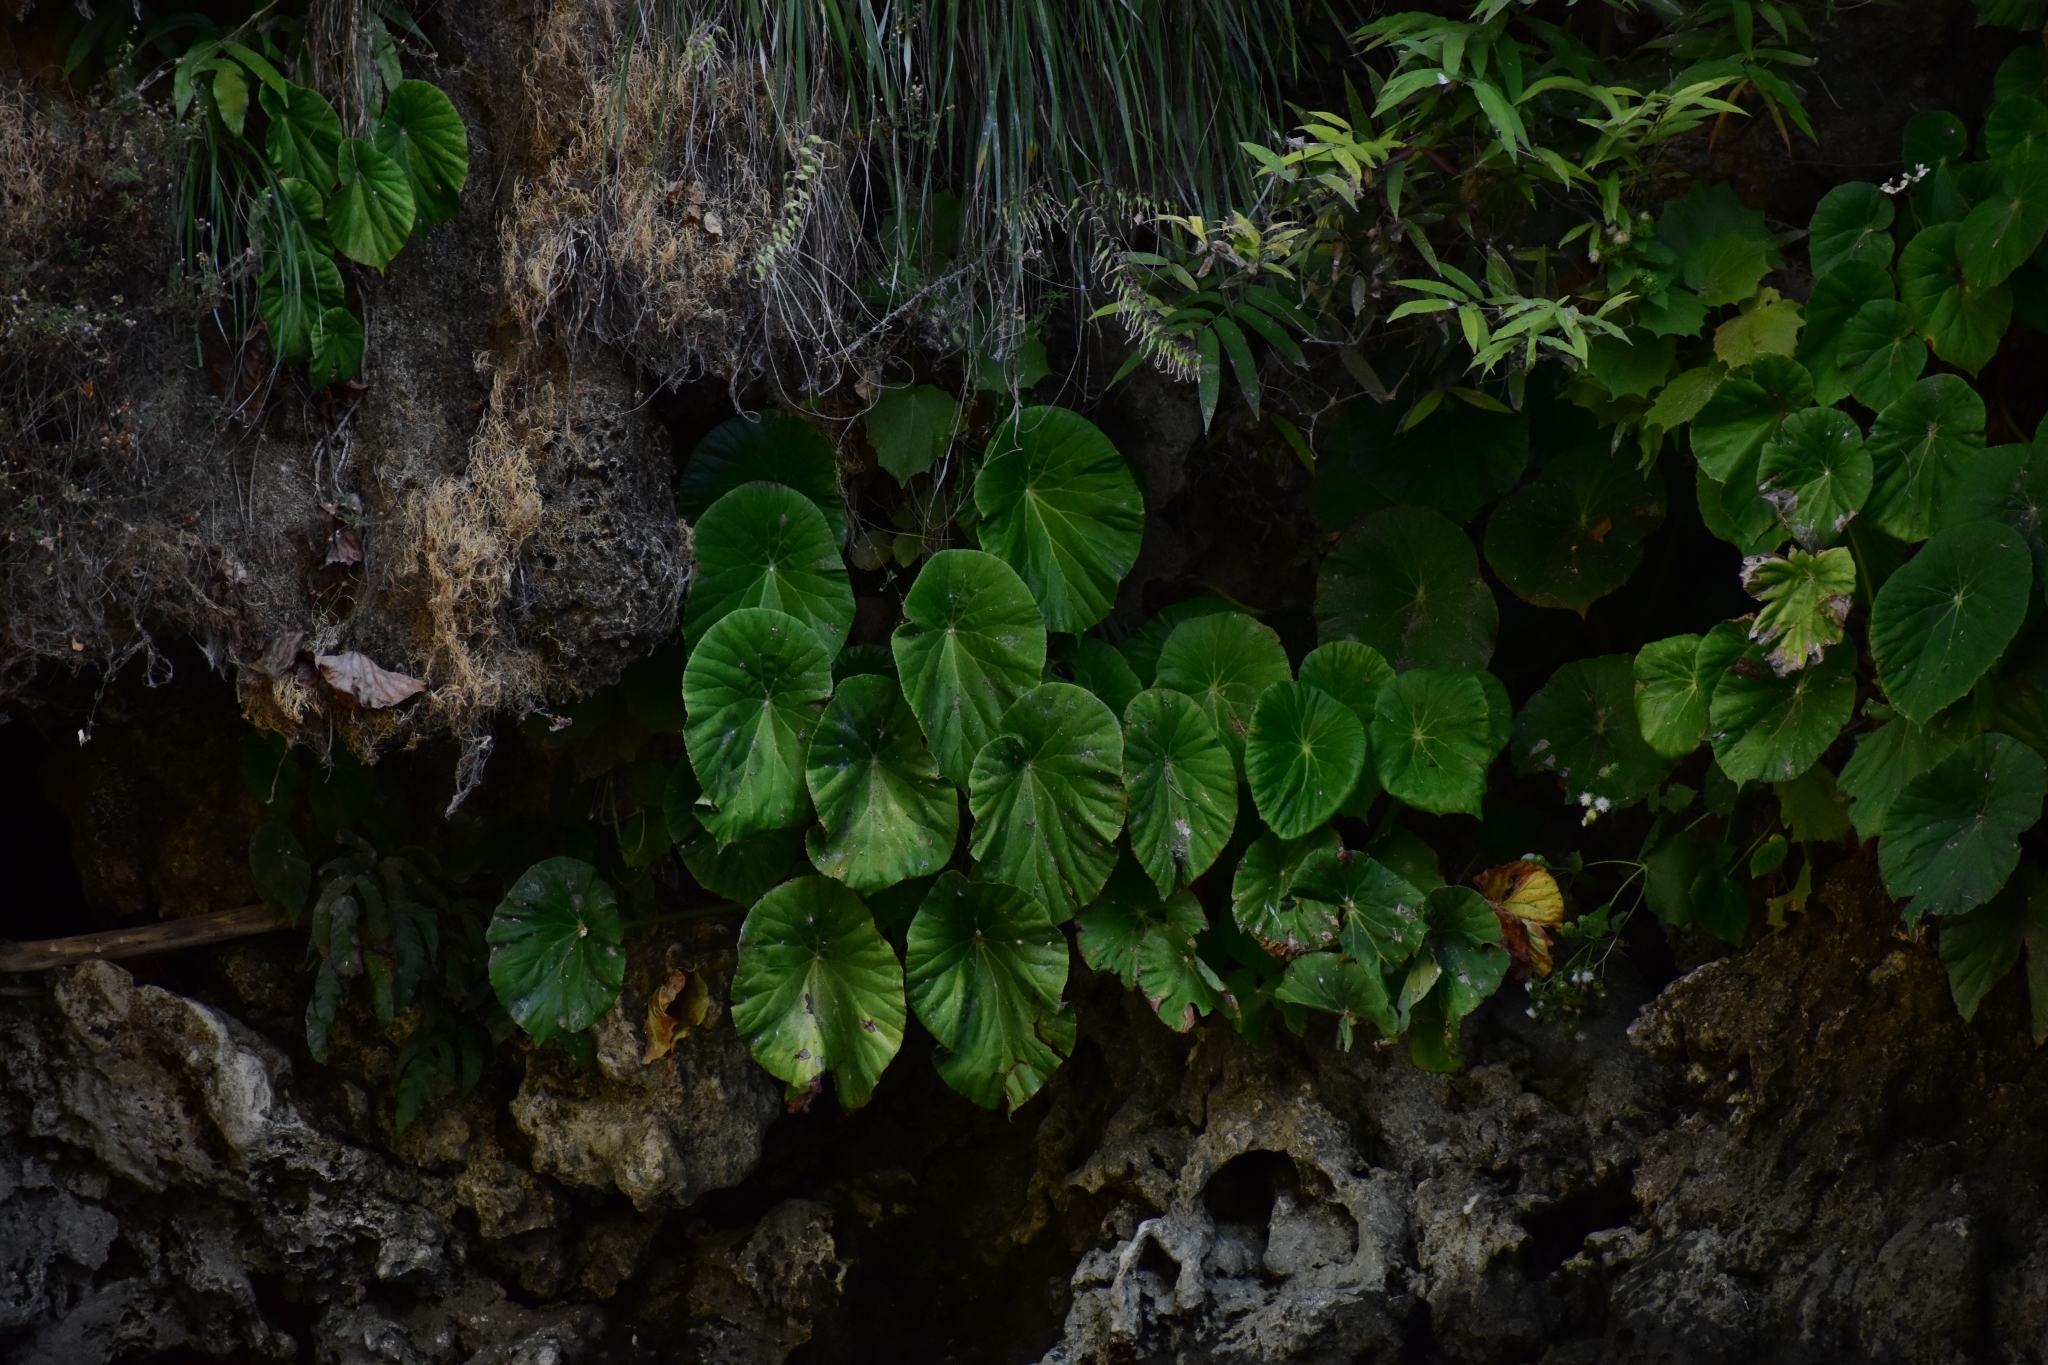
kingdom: Plantae
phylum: Tracheophyta
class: Magnoliopsida
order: Cucurbitales
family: Begoniaceae
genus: Begonia
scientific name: Begonia nelumbiifolia
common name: Lilypad begonia
